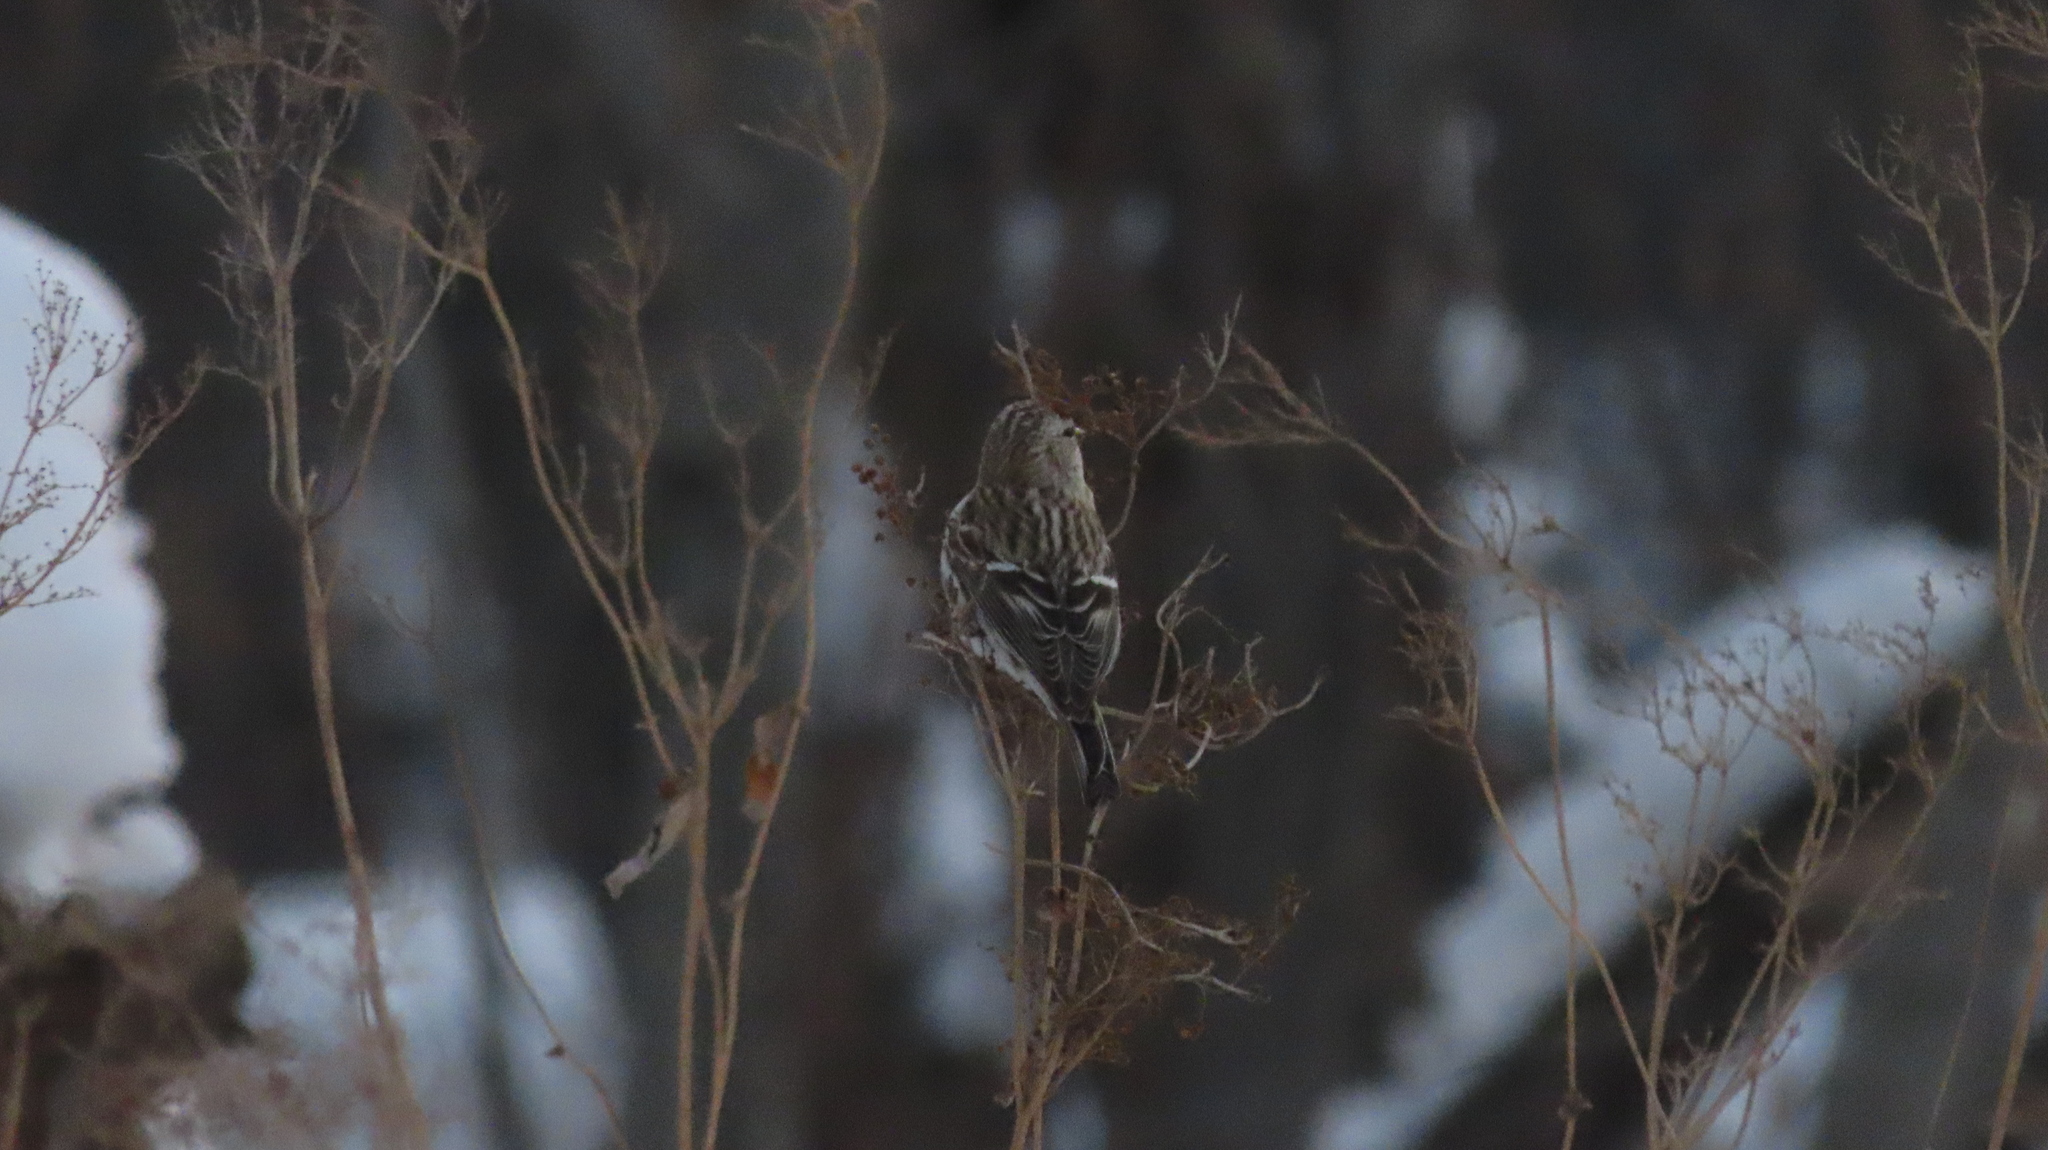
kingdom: Animalia
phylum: Chordata
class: Aves
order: Passeriformes
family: Fringillidae
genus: Acanthis
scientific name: Acanthis flammea
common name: Common redpoll
